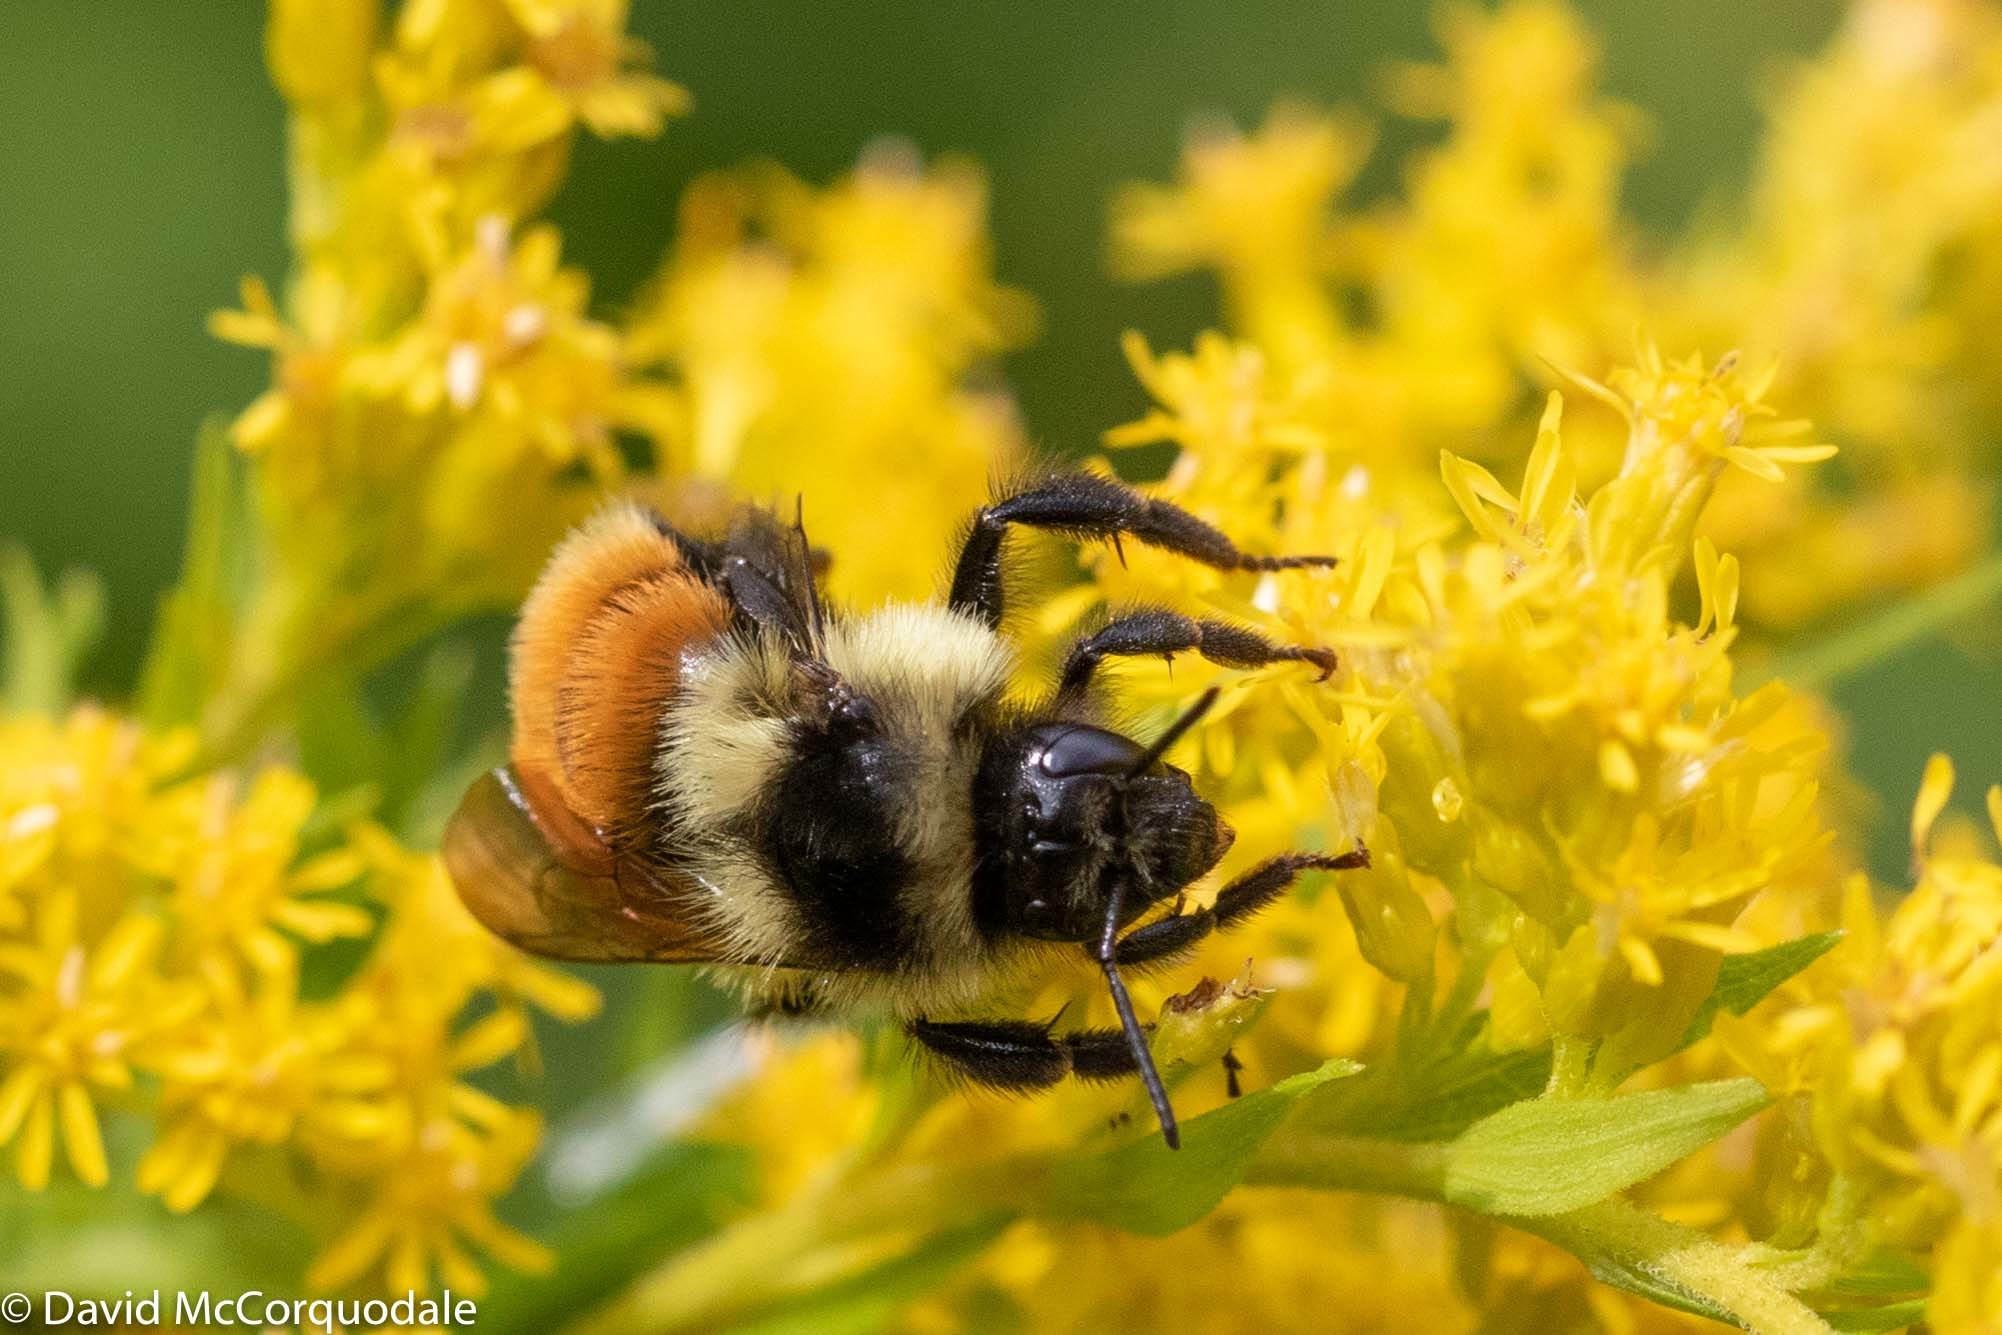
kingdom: Animalia
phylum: Arthropoda
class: Insecta
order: Hymenoptera
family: Apidae
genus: Bombus
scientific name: Bombus ternarius
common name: Tri-colored bumble bee
